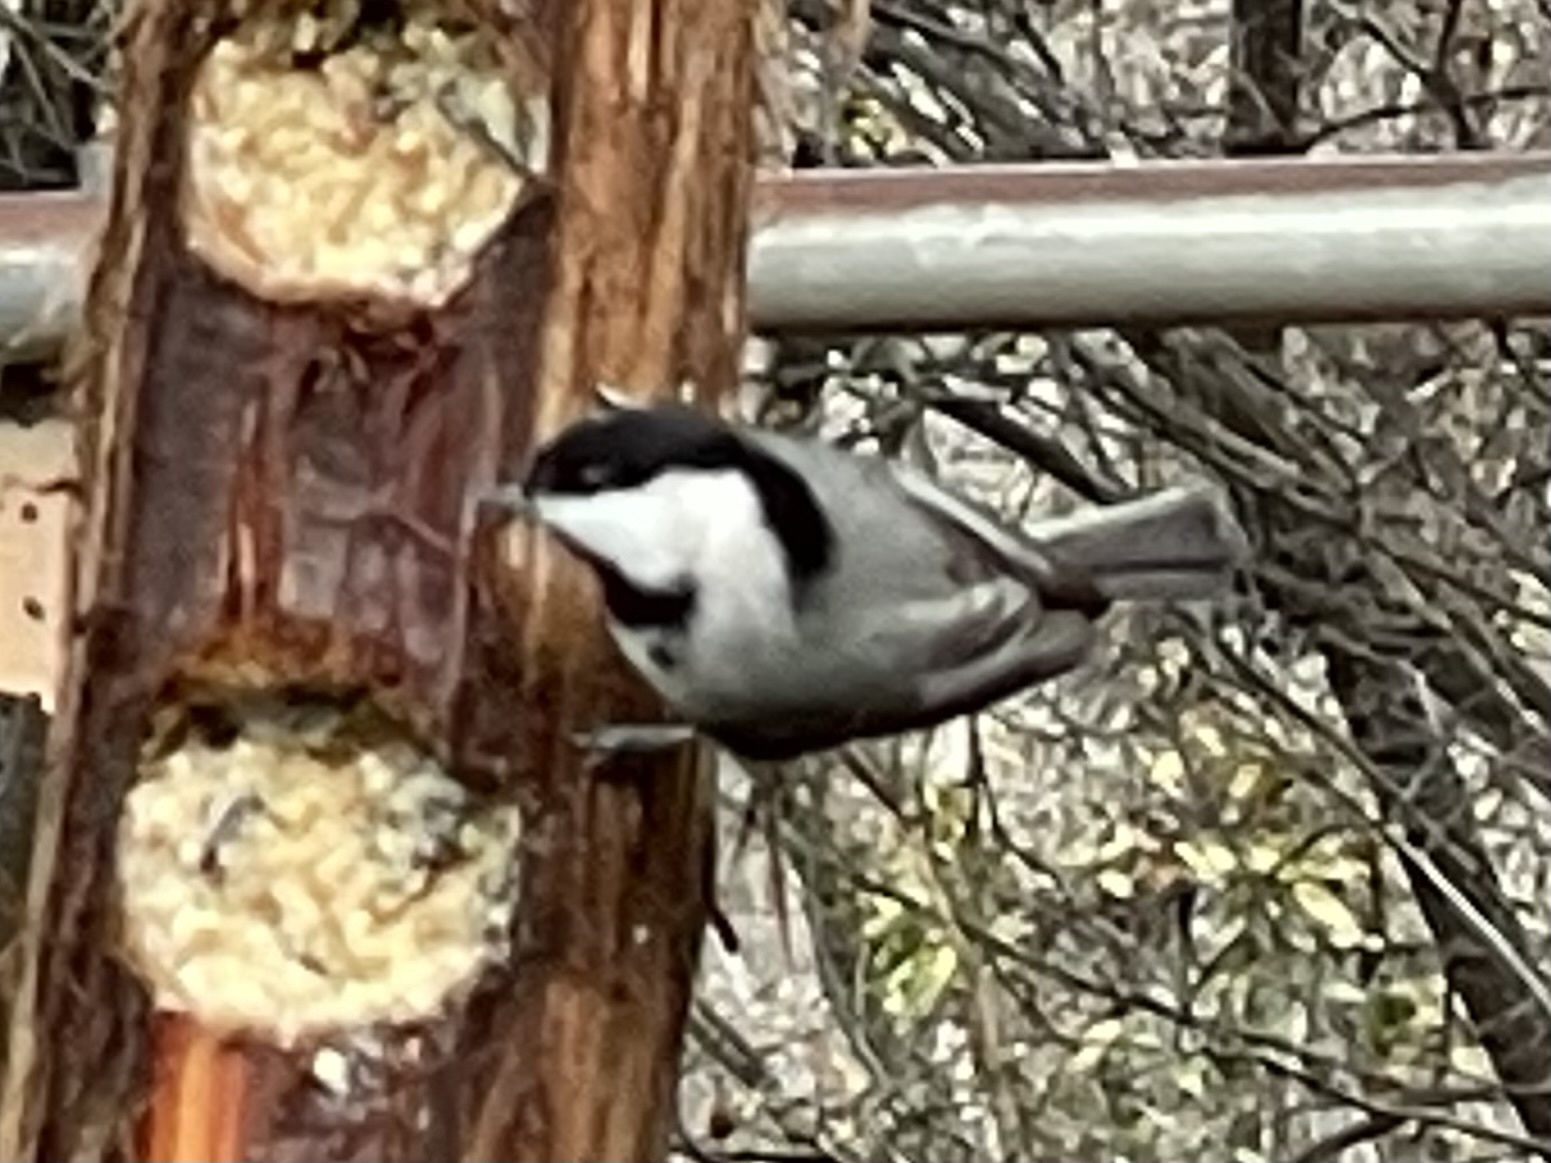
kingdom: Animalia
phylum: Chordata
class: Aves
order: Passeriformes
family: Paridae
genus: Poecile
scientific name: Poecile carolinensis
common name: Carolina chickadee
